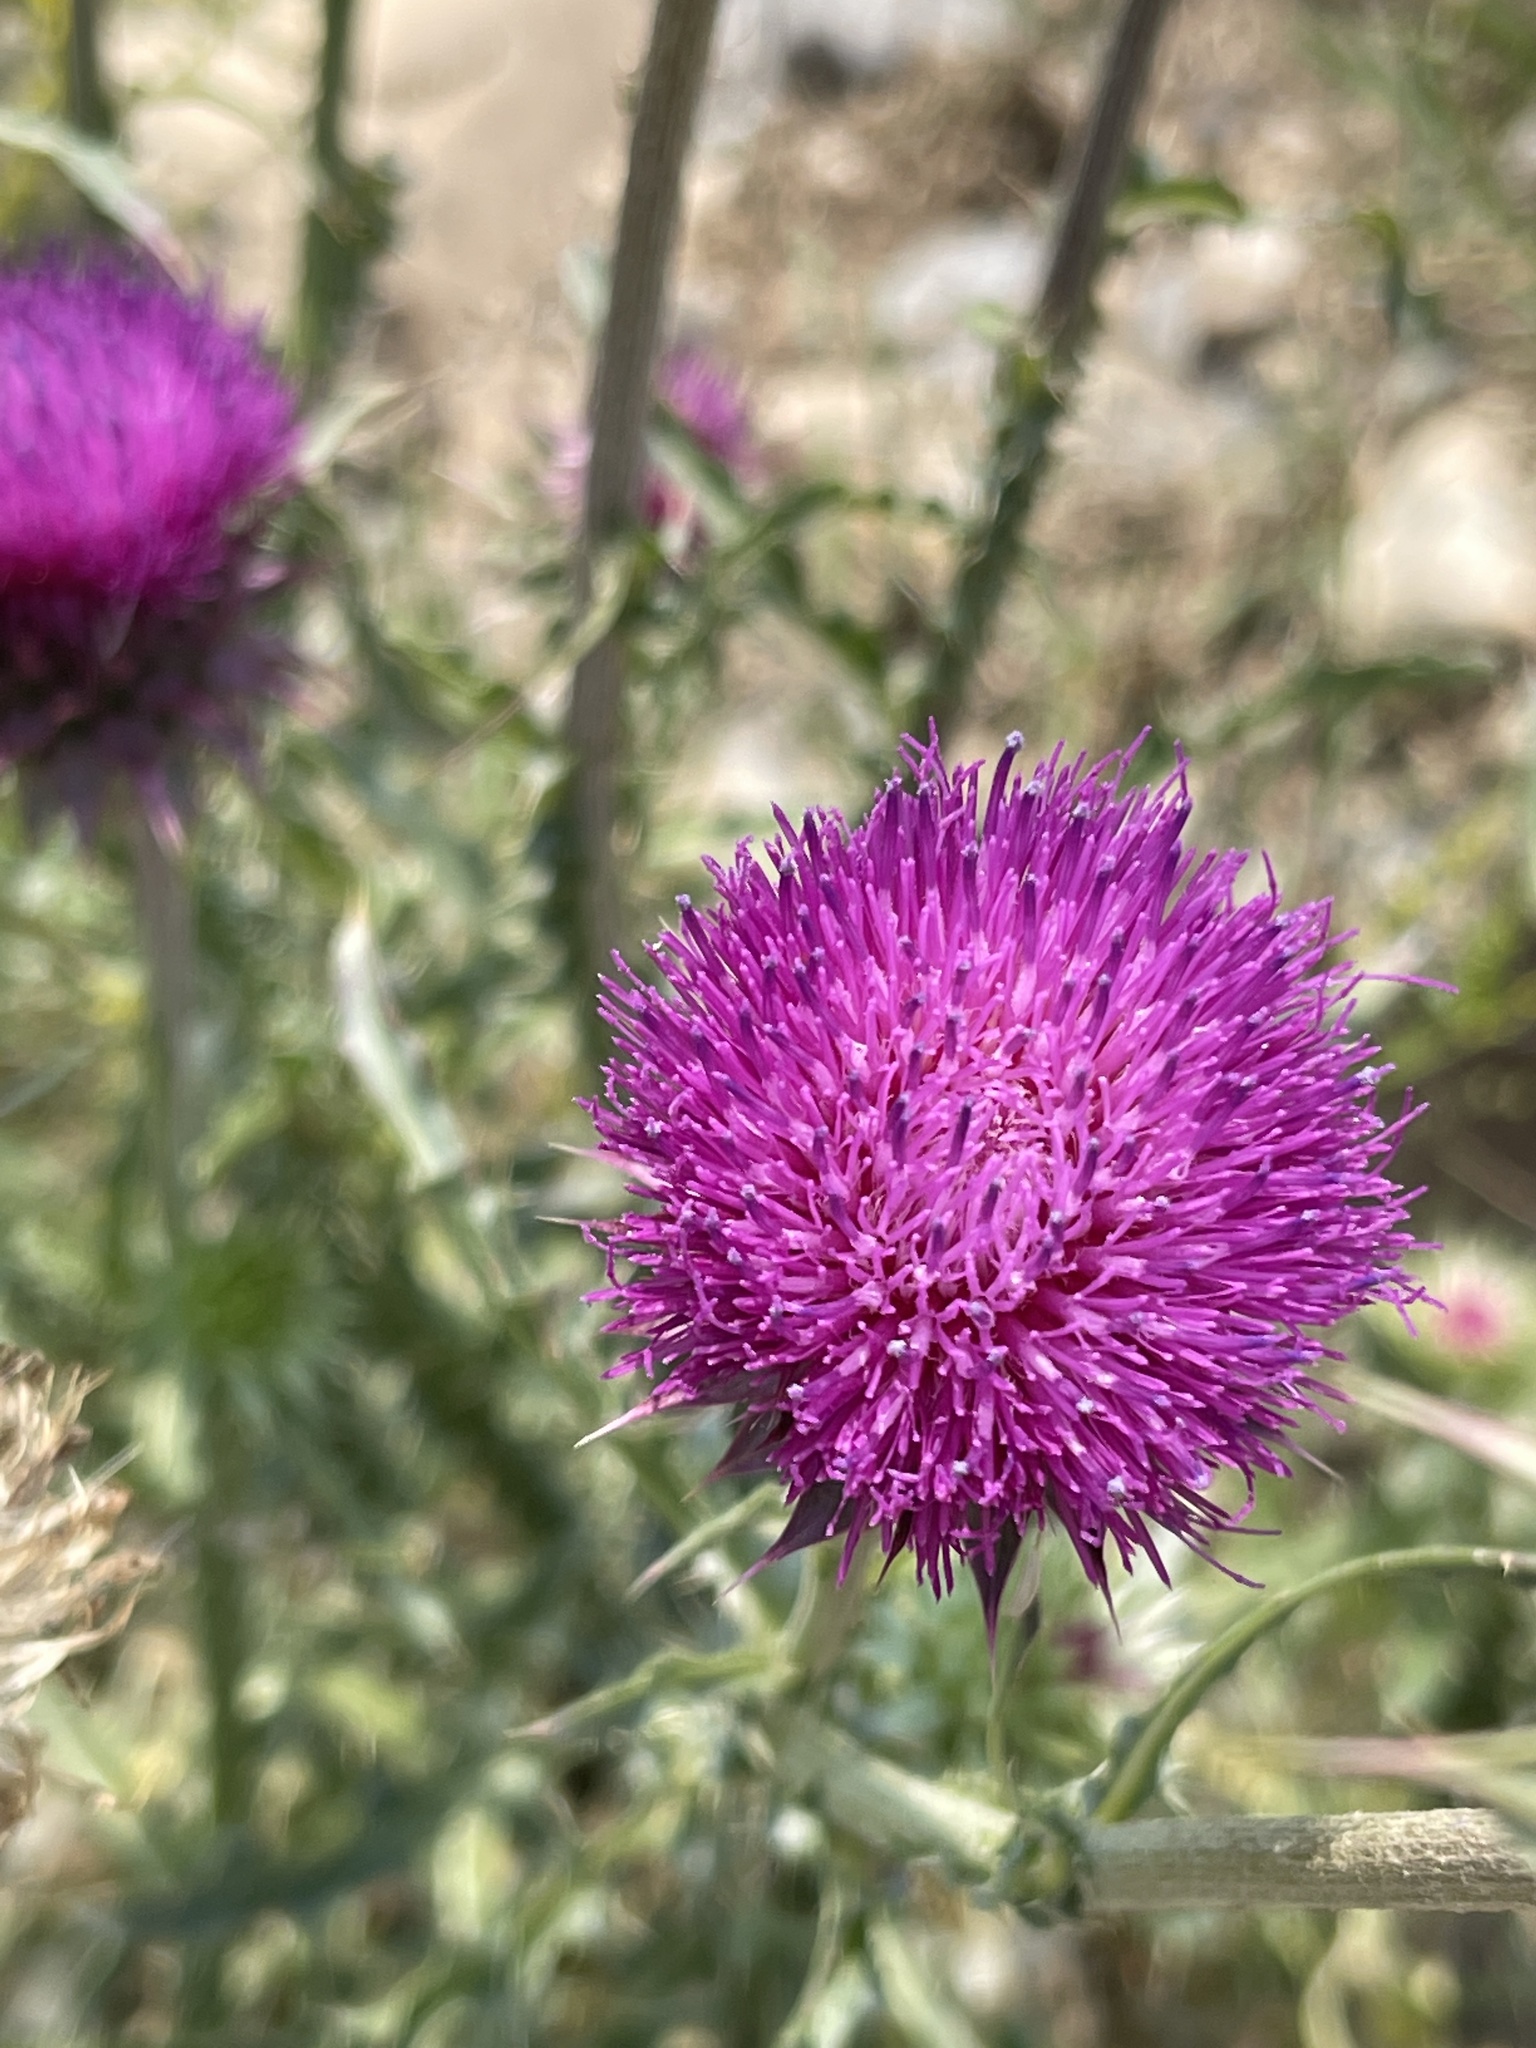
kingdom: Plantae
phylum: Tracheophyta
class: Magnoliopsida
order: Asterales
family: Asteraceae
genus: Carduus
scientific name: Carduus nutans
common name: Musk thistle
